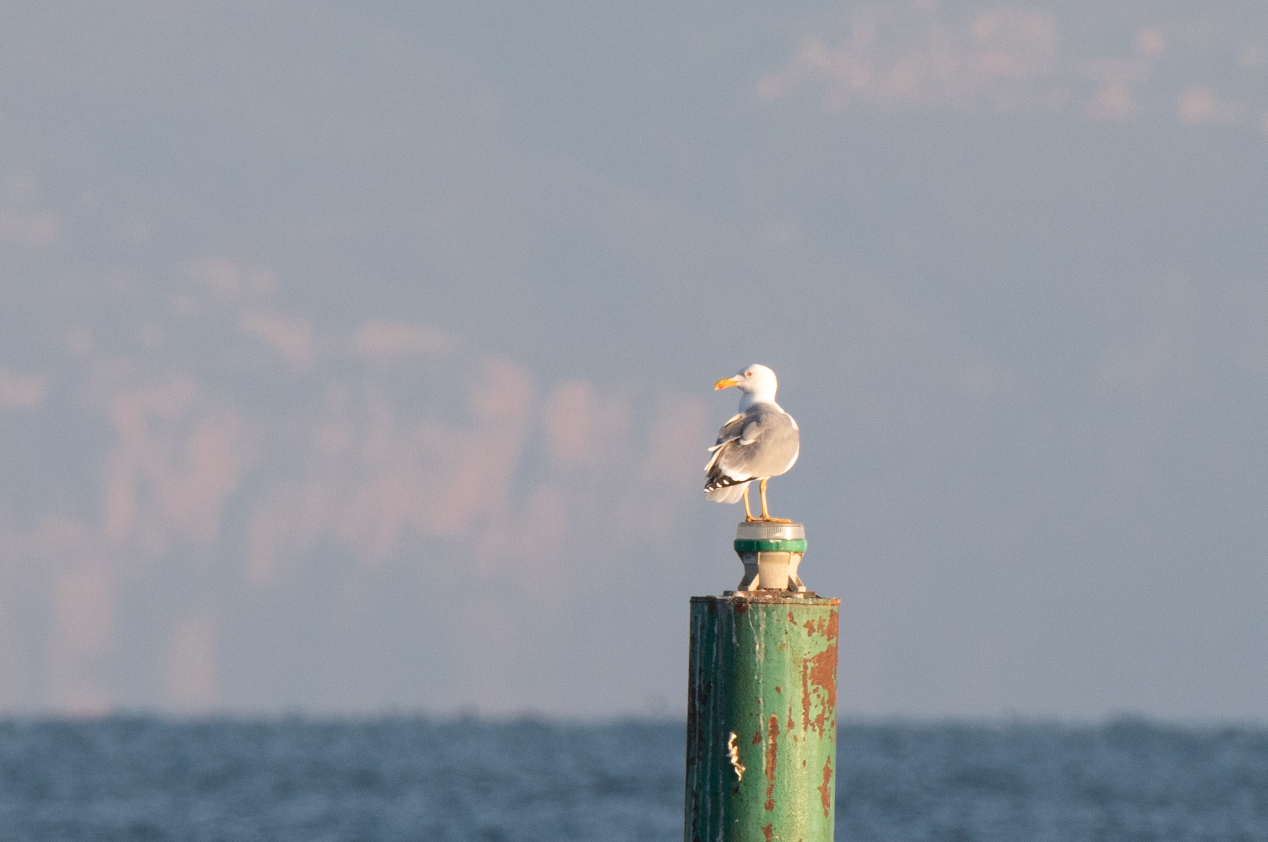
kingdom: Animalia
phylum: Chordata
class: Aves
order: Charadriiformes
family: Laridae
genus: Larus
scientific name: Larus michahellis
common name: Yellow-legged gull
